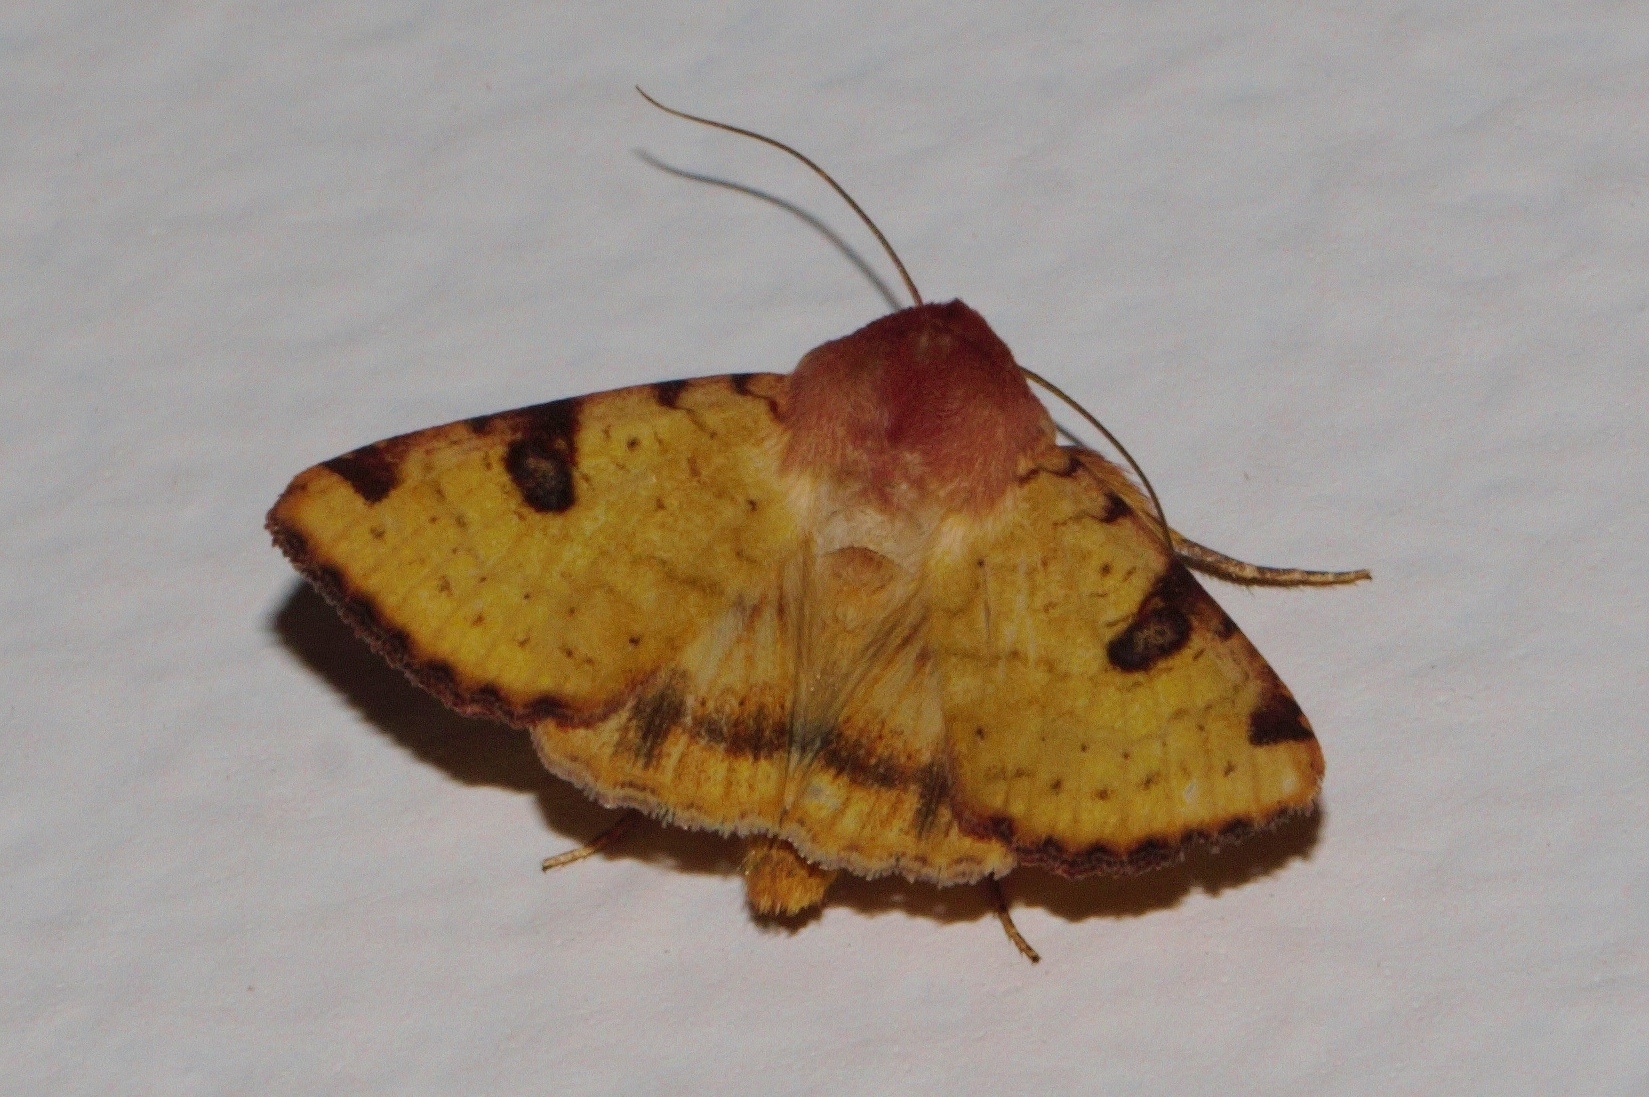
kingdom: Animalia
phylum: Arthropoda
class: Insecta
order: Lepidoptera
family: Noctuidae
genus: Heliothis
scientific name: Heliothis flavigera
